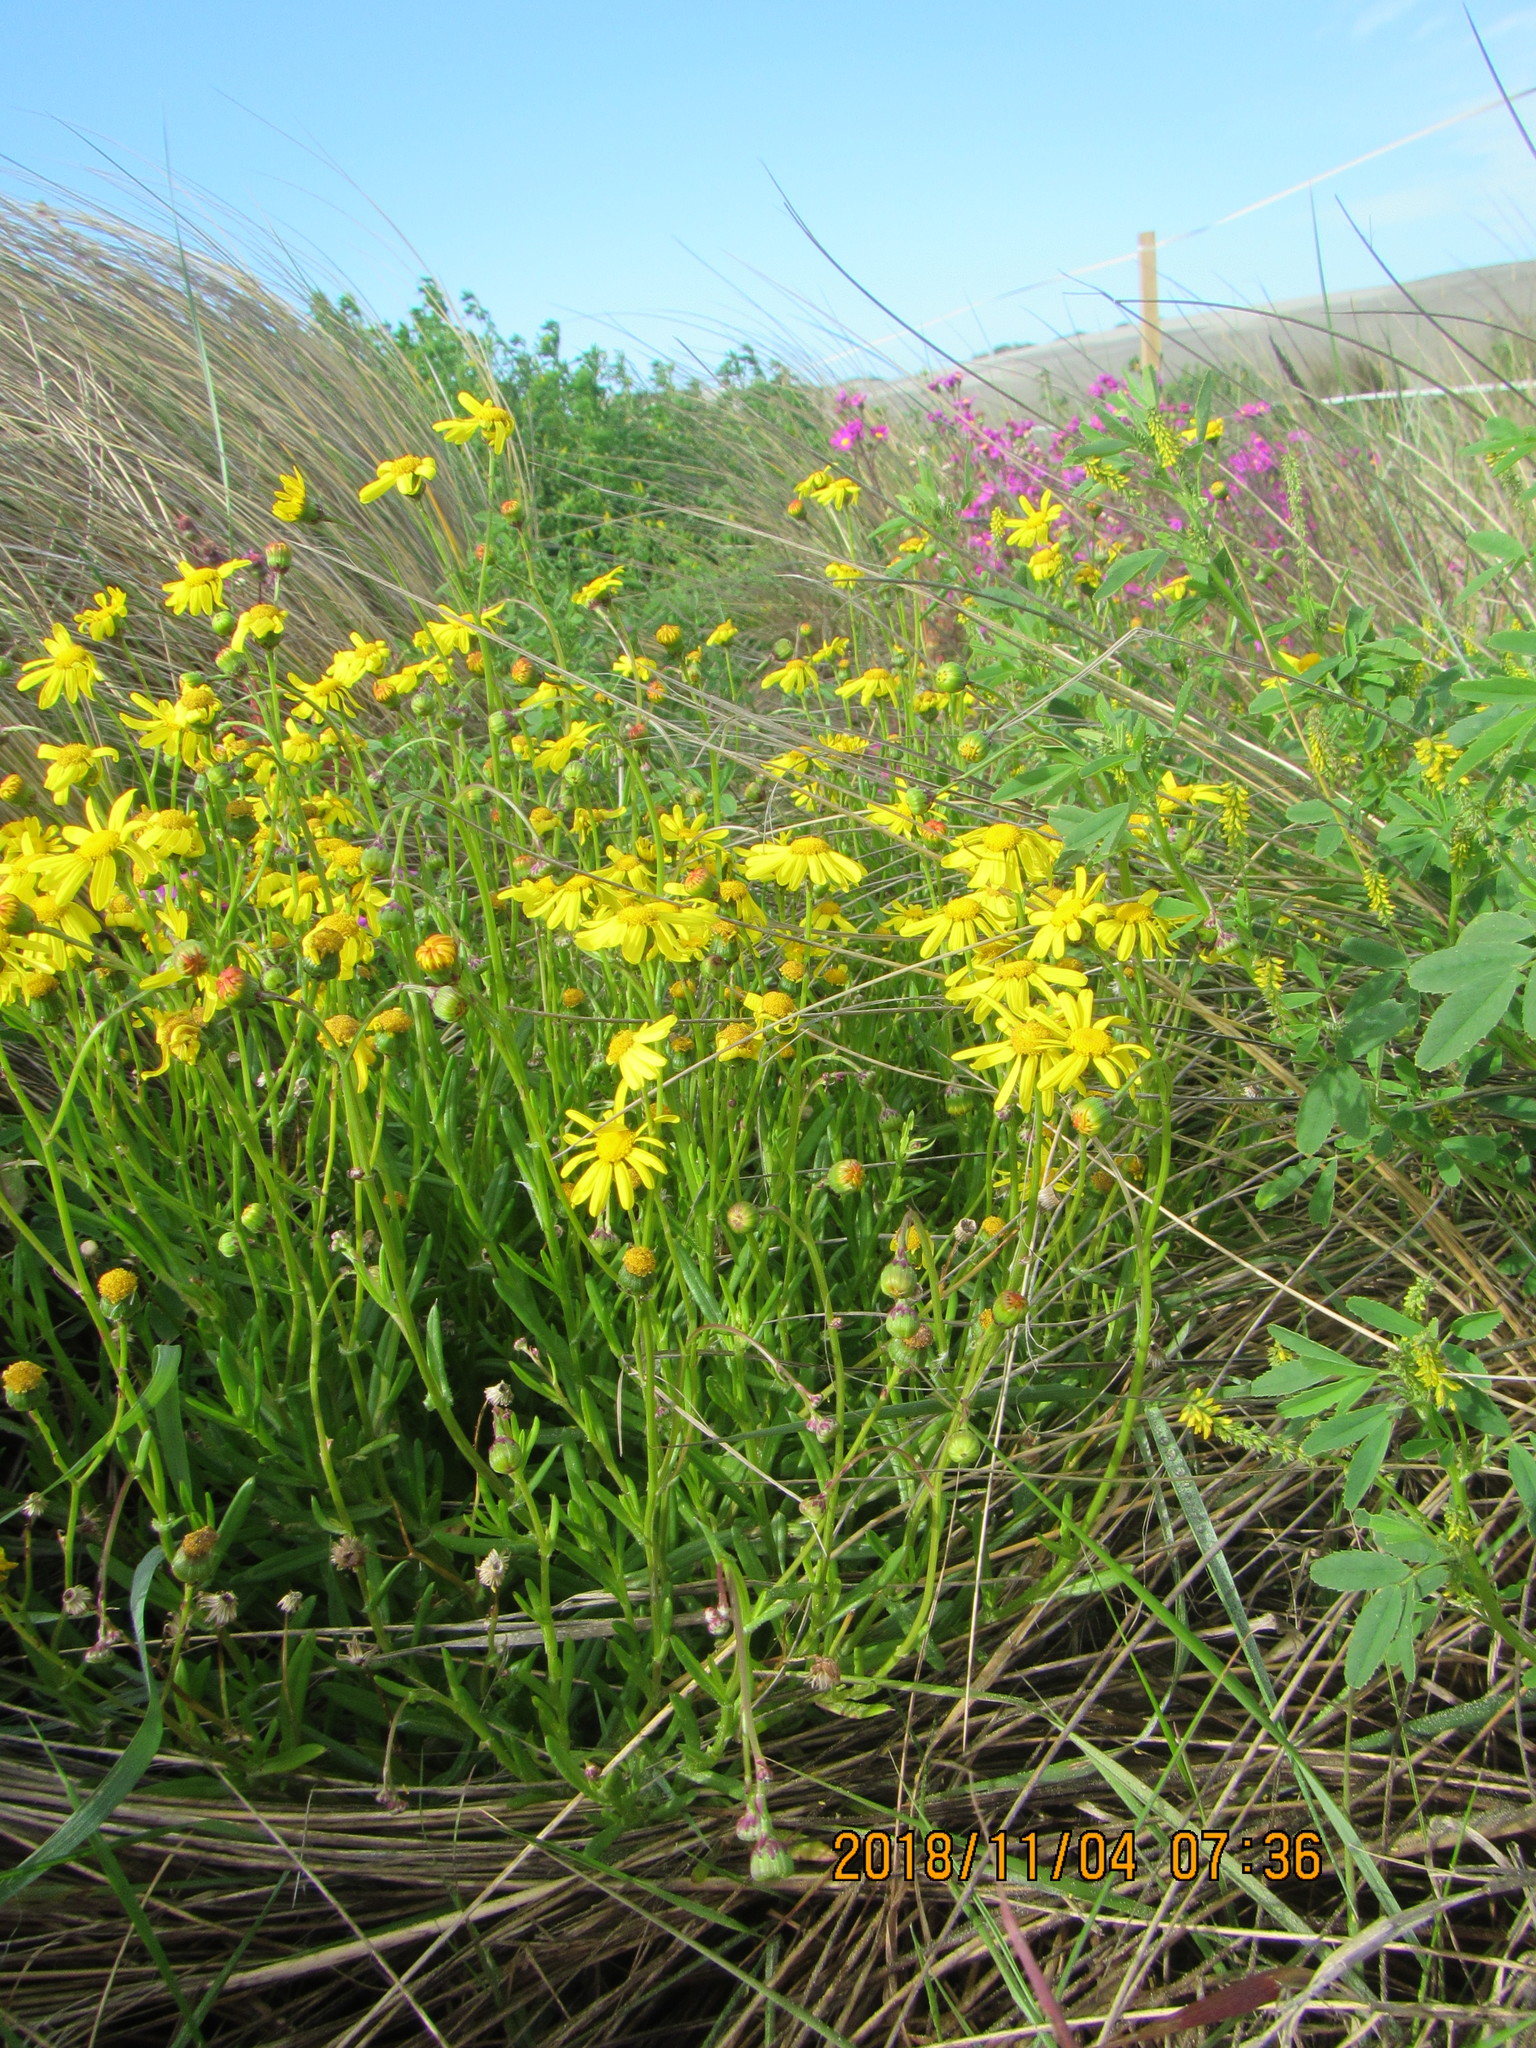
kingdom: Plantae
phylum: Tracheophyta
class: Magnoliopsida
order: Asterales
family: Asteraceae
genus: Senecio
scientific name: Senecio skirrhodon
